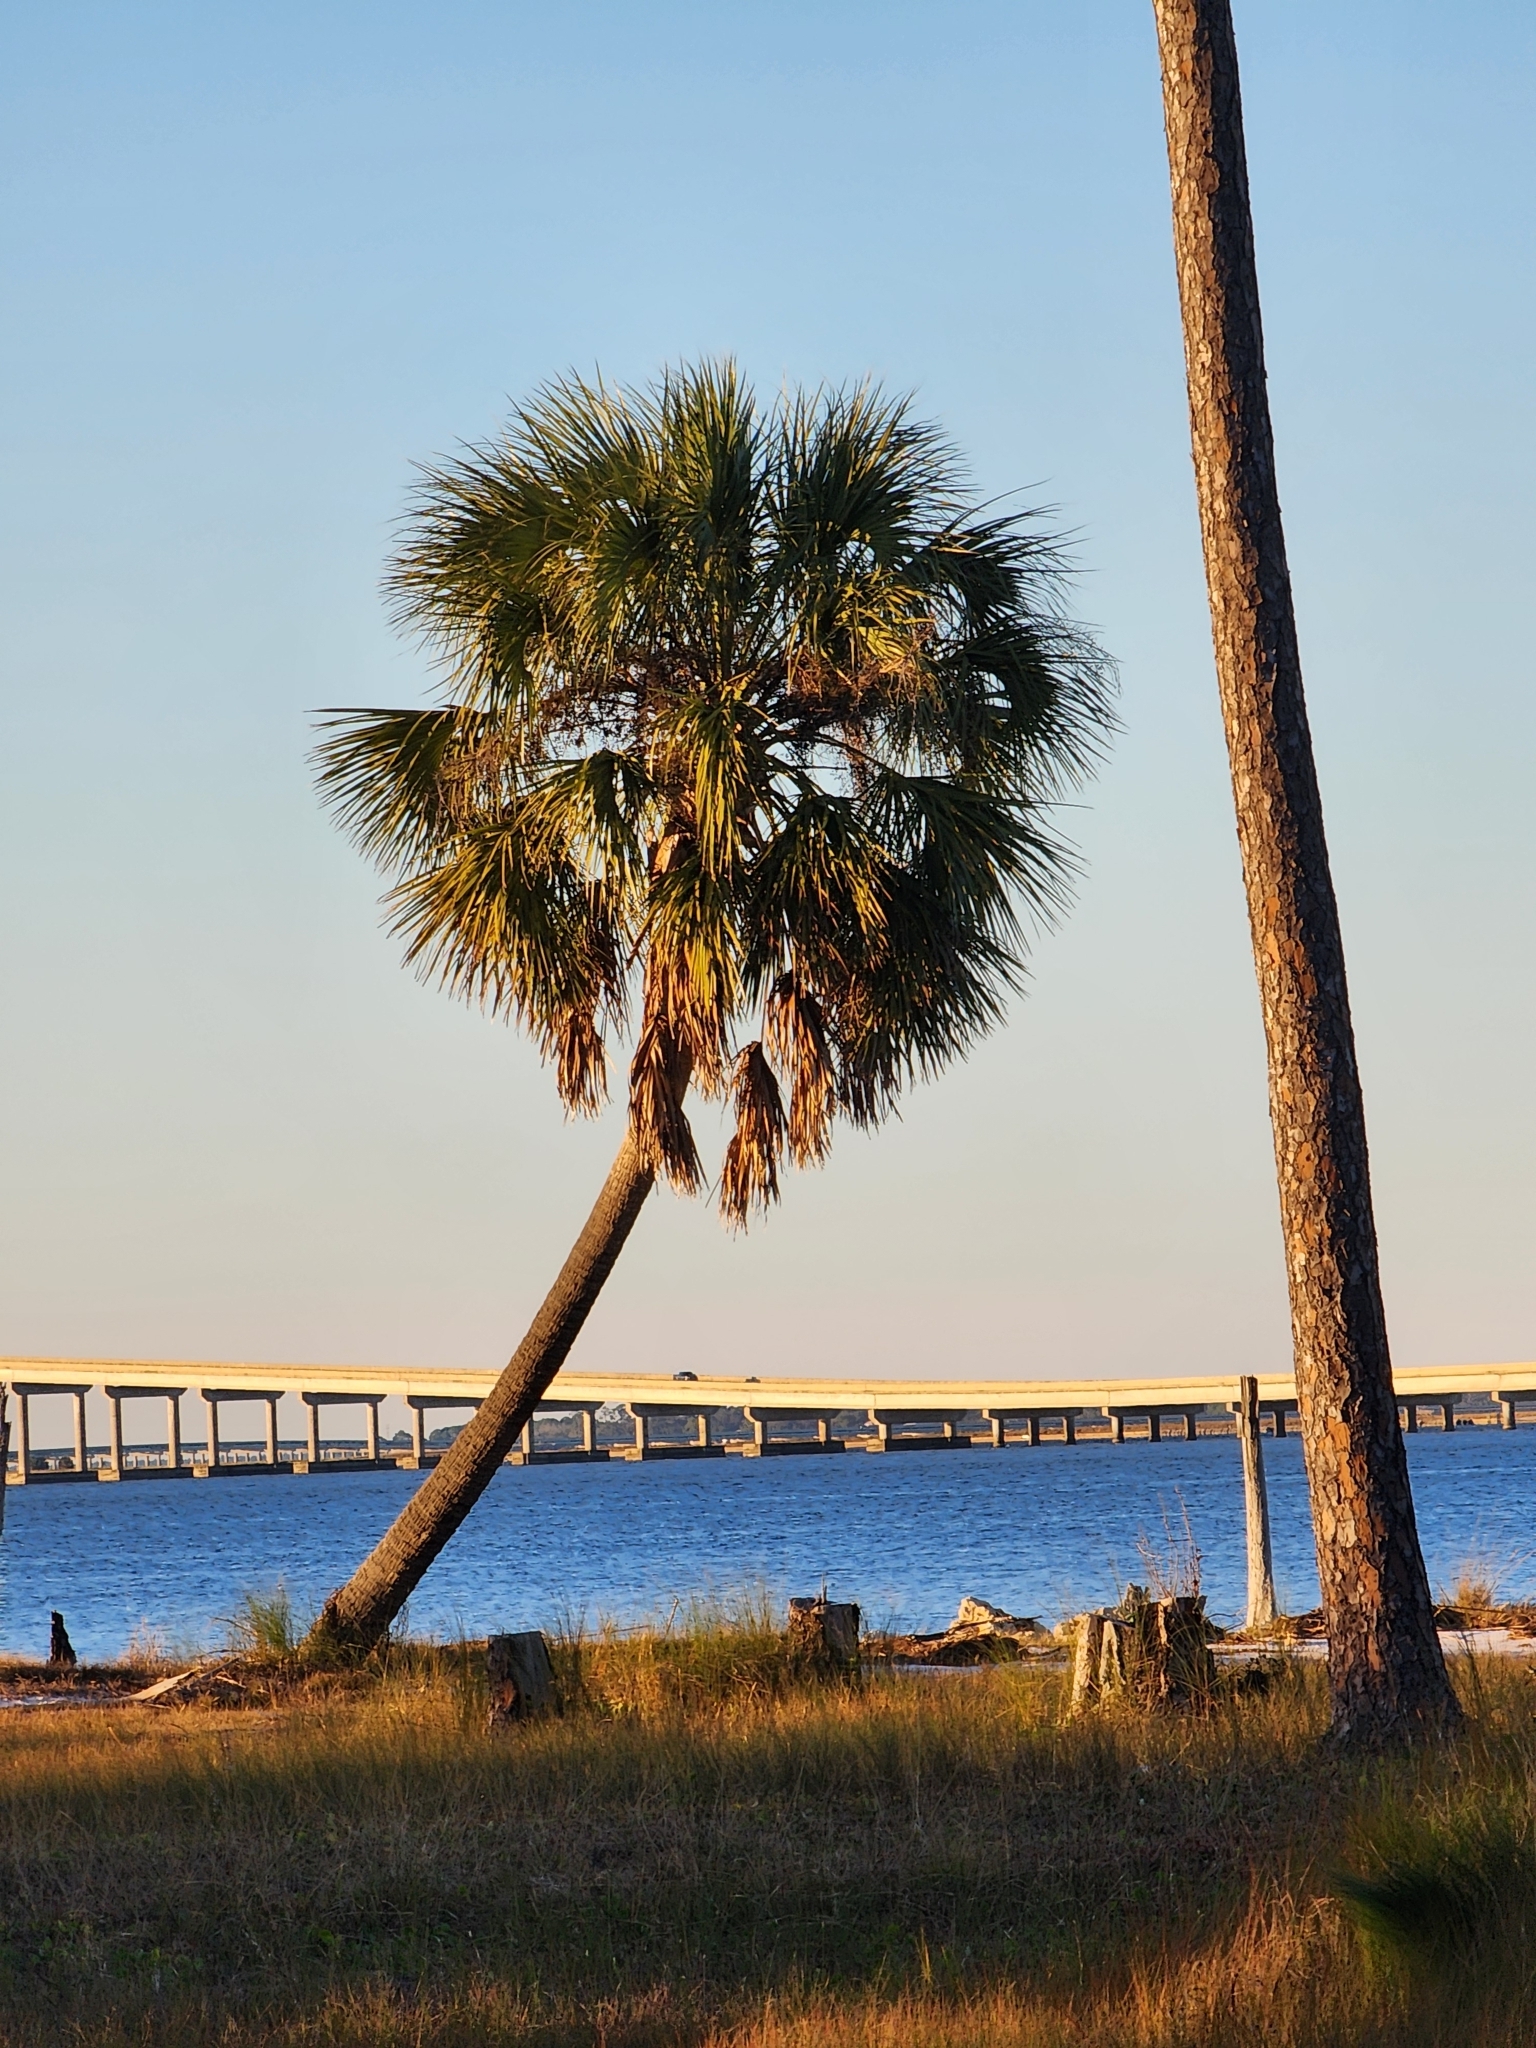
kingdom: Plantae
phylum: Tracheophyta
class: Liliopsida
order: Arecales
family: Arecaceae
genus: Sabal
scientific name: Sabal palmetto
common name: Blue palmetto
